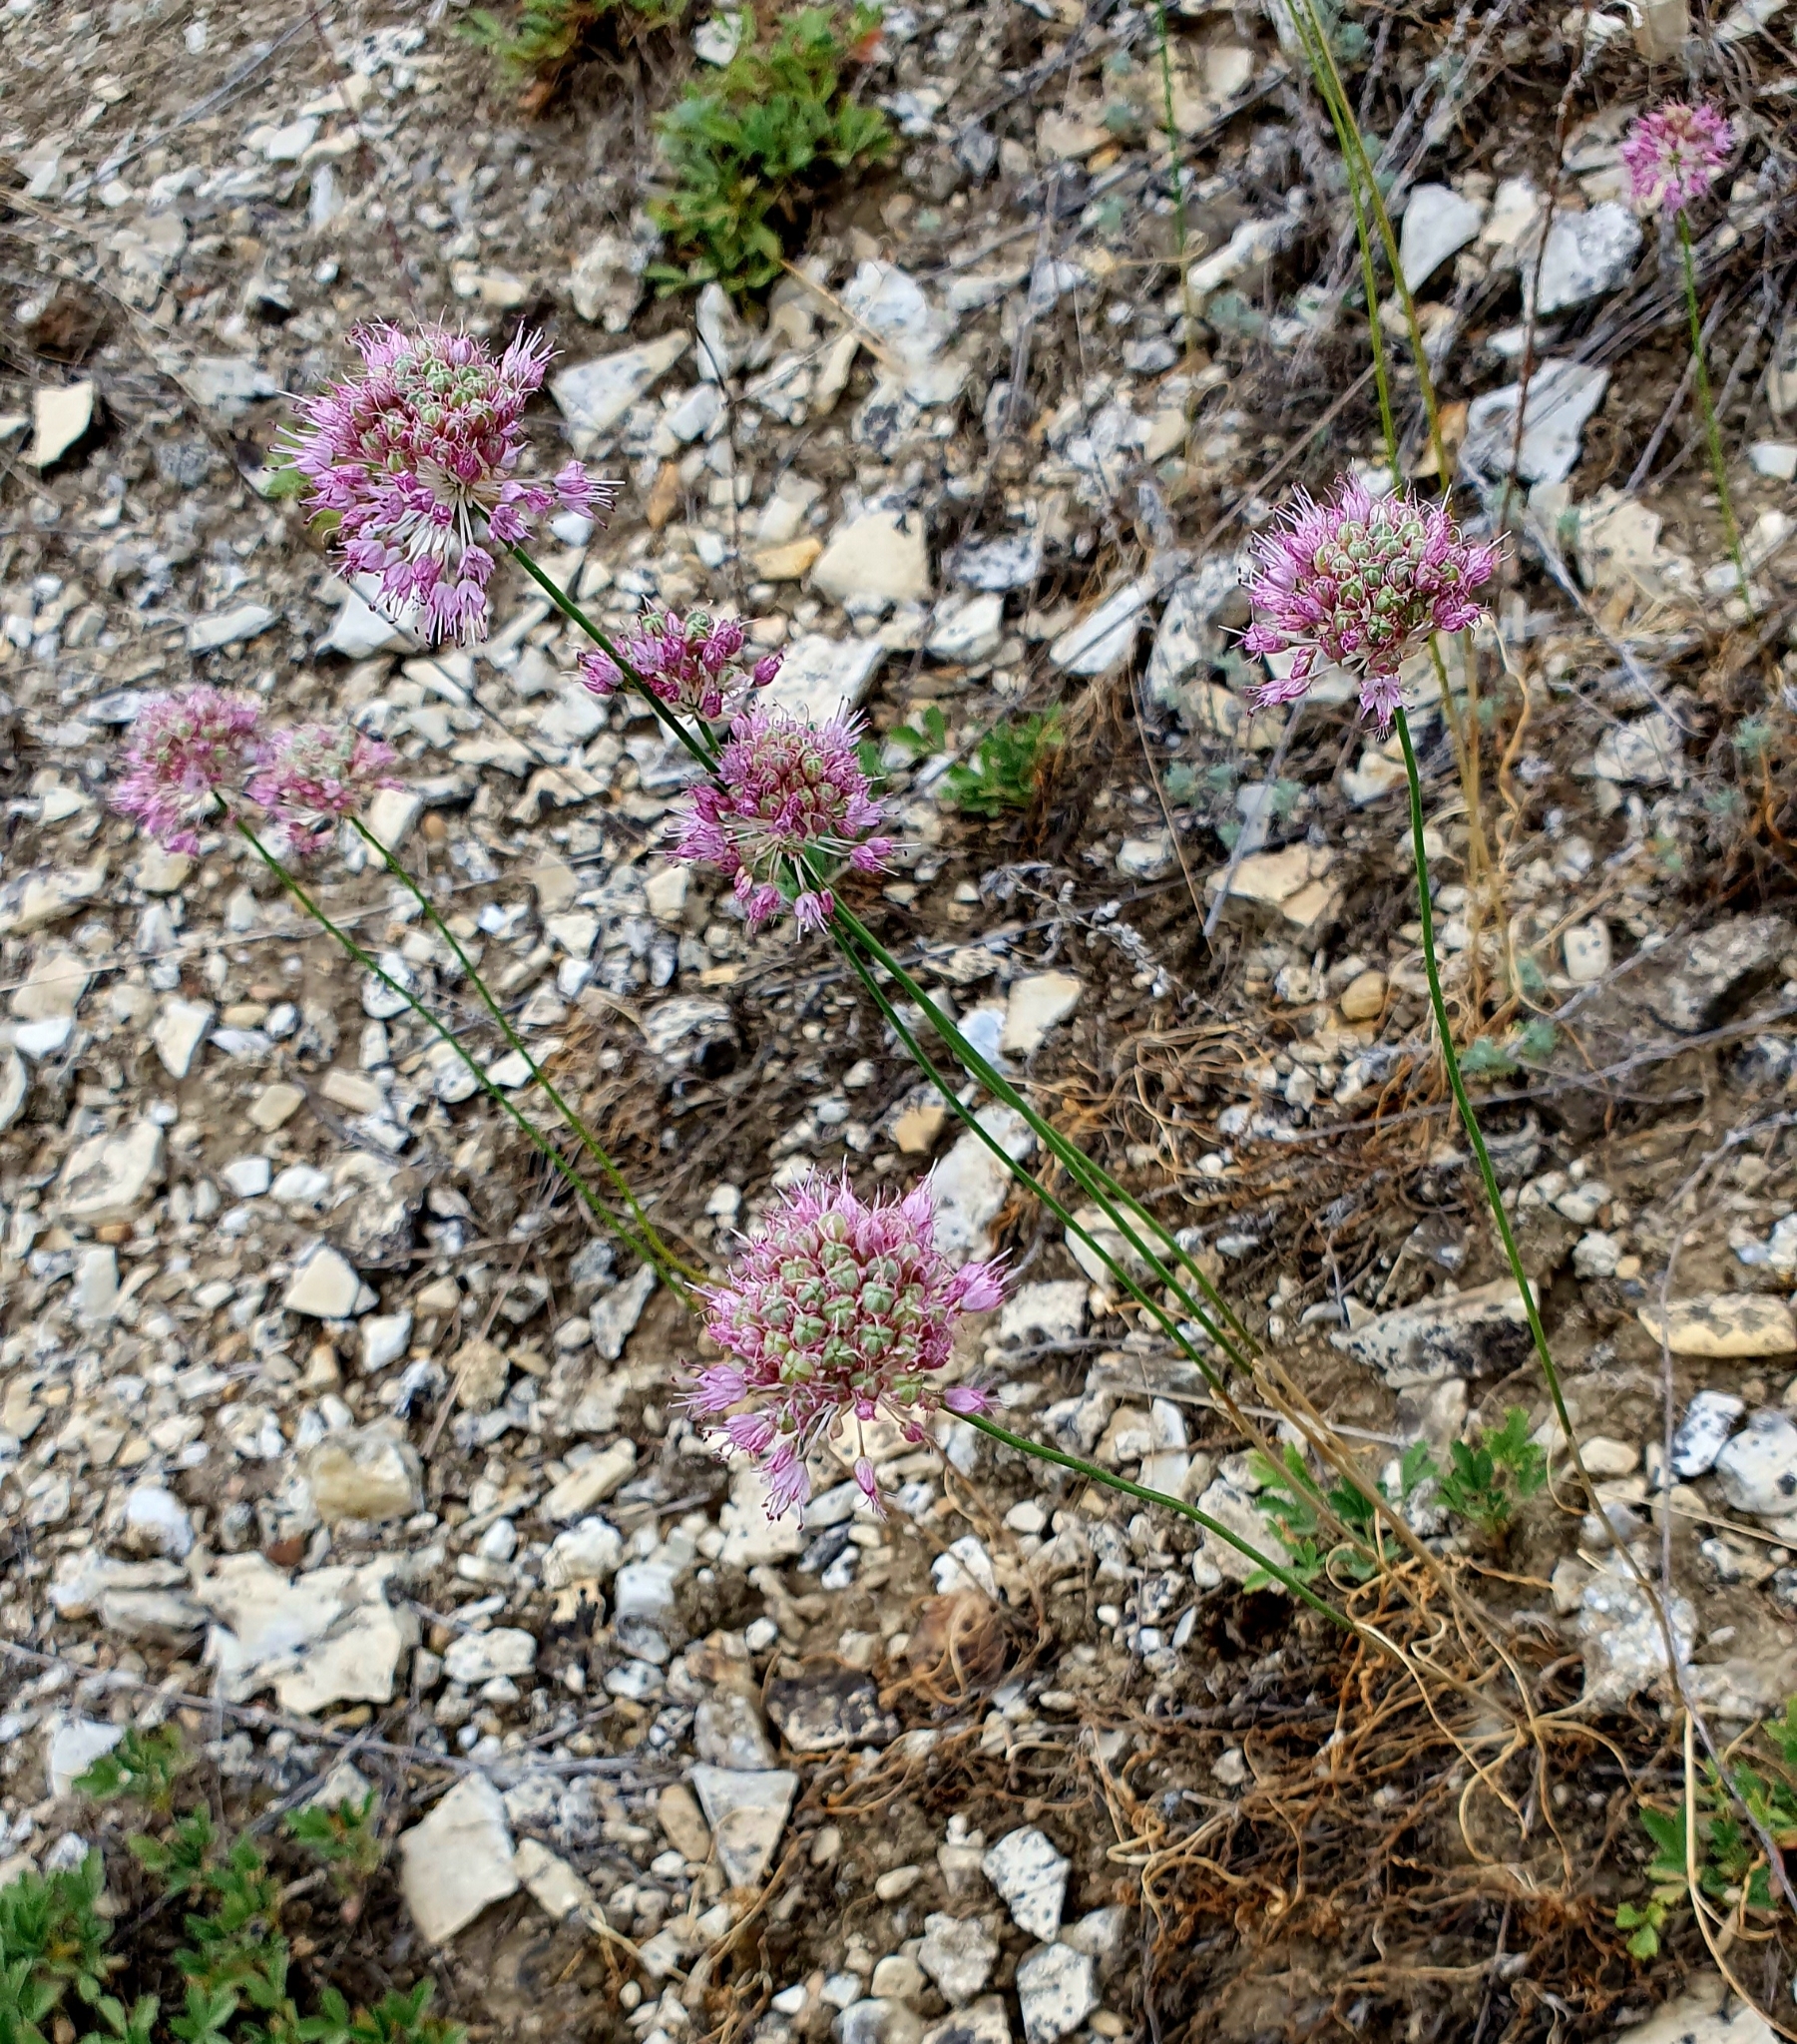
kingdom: Plantae
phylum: Tracheophyta
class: Liliopsida
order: Asparagales
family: Amaryllidaceae
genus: Allium
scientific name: Allium lineare
